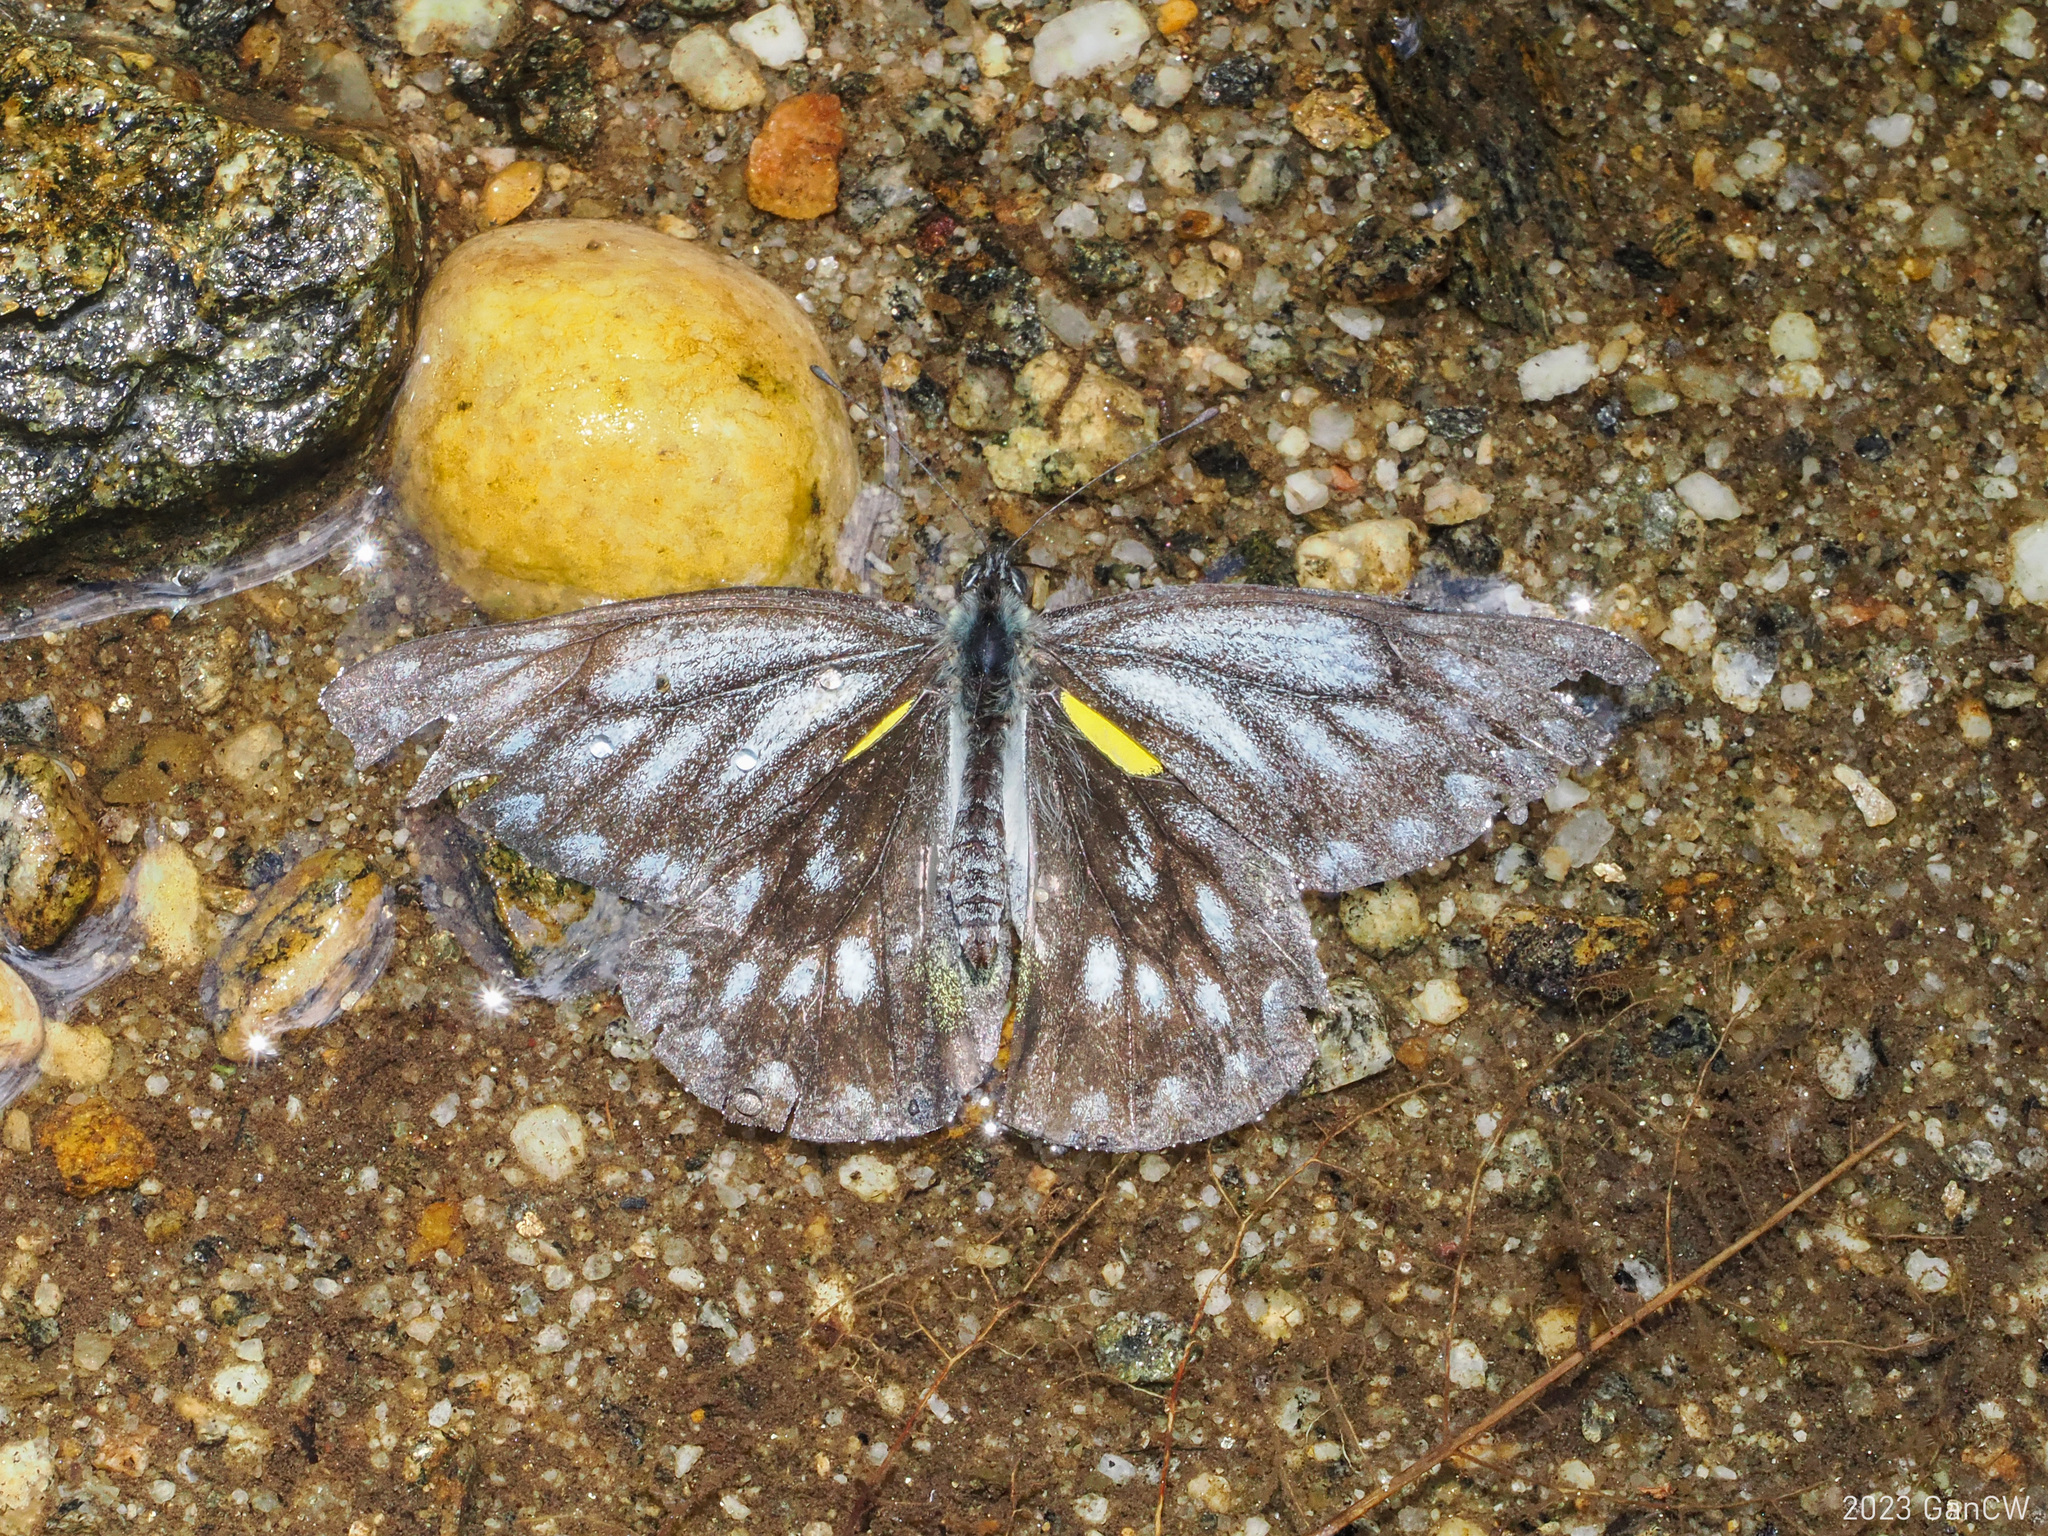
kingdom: Animalia
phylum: Arthropoda
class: Insecta
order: Lepidoptera
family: Pieridae
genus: Delias
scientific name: Delias belladonna
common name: Hill jezebel
